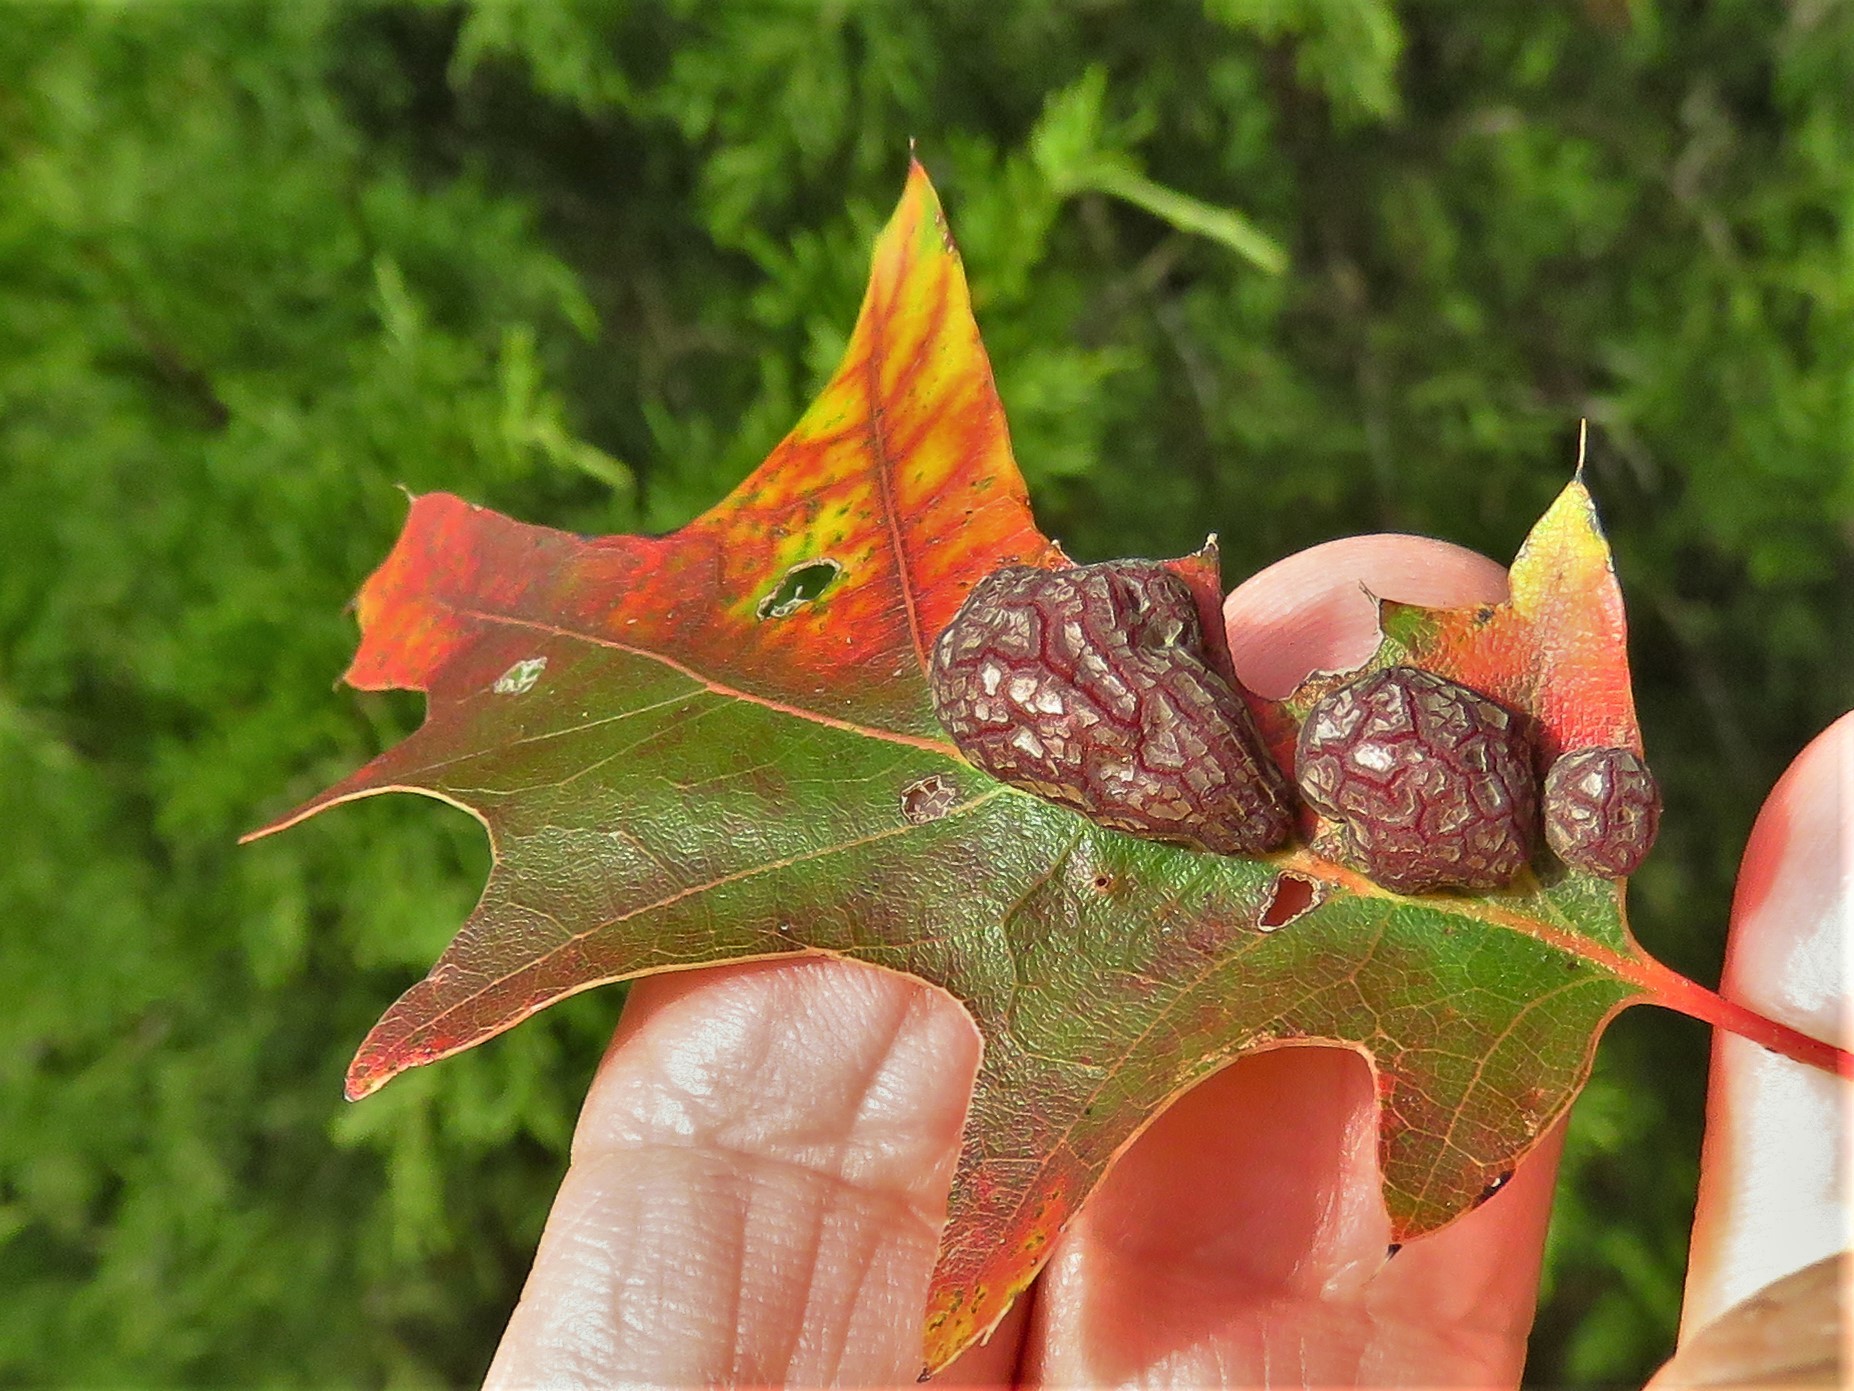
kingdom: Animalia
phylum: Arthropoda
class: Insecta
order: Diptera
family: Cecidomyiidae
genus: Polystepha
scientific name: Polystepha pilulae
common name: Oak leaf gall midge
